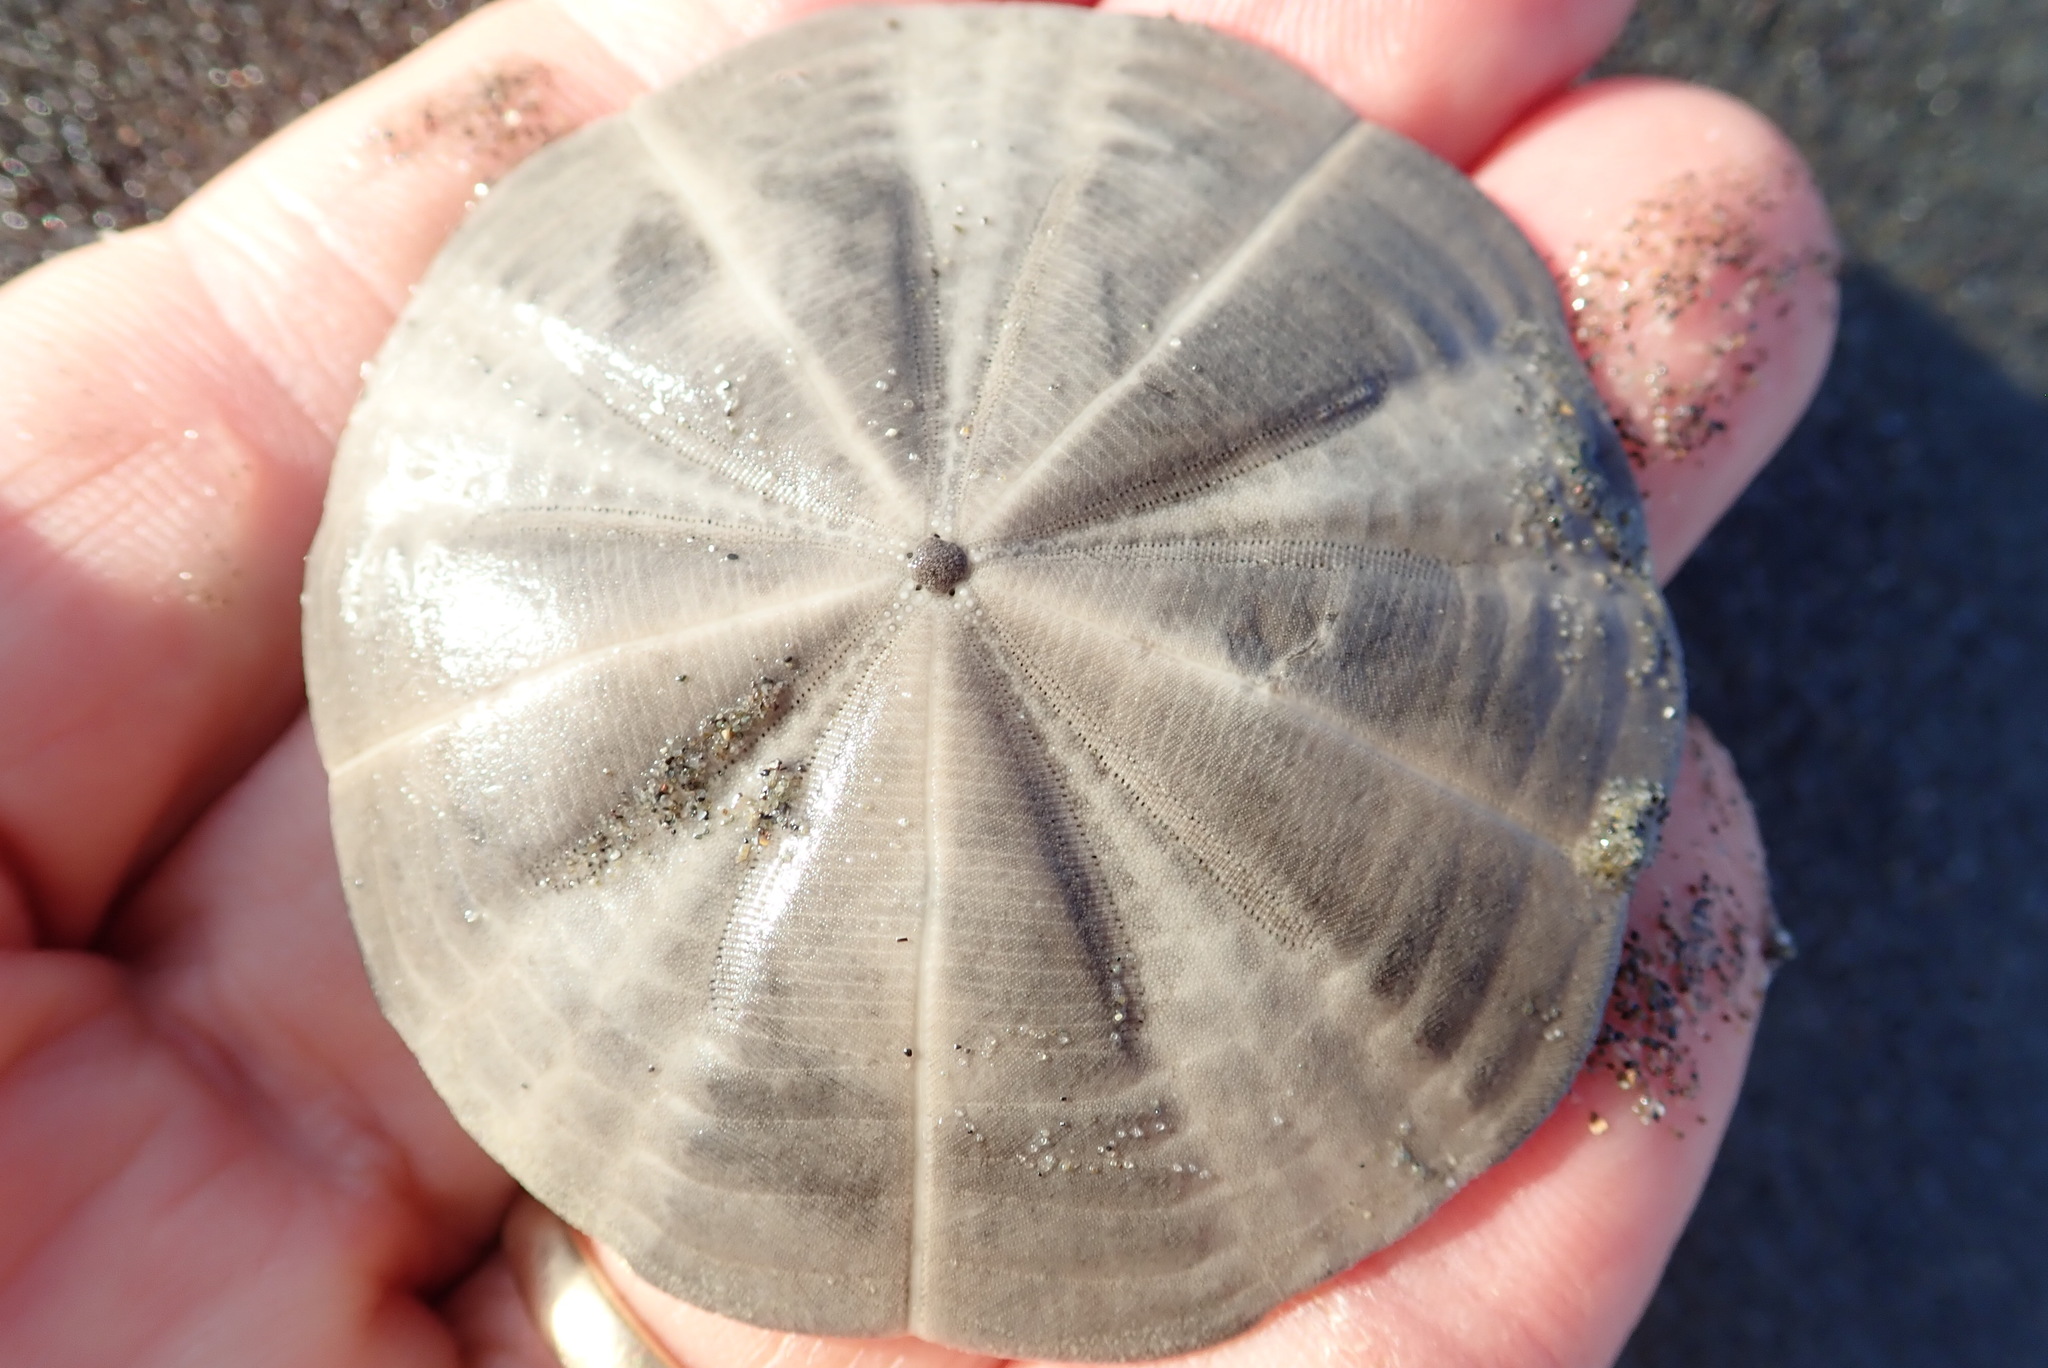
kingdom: Animalia
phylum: Echinodermata
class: Echinoidea
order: Clypeasteroida
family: Clypeasteridae
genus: Fellaster
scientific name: Fellaster zelandiae
